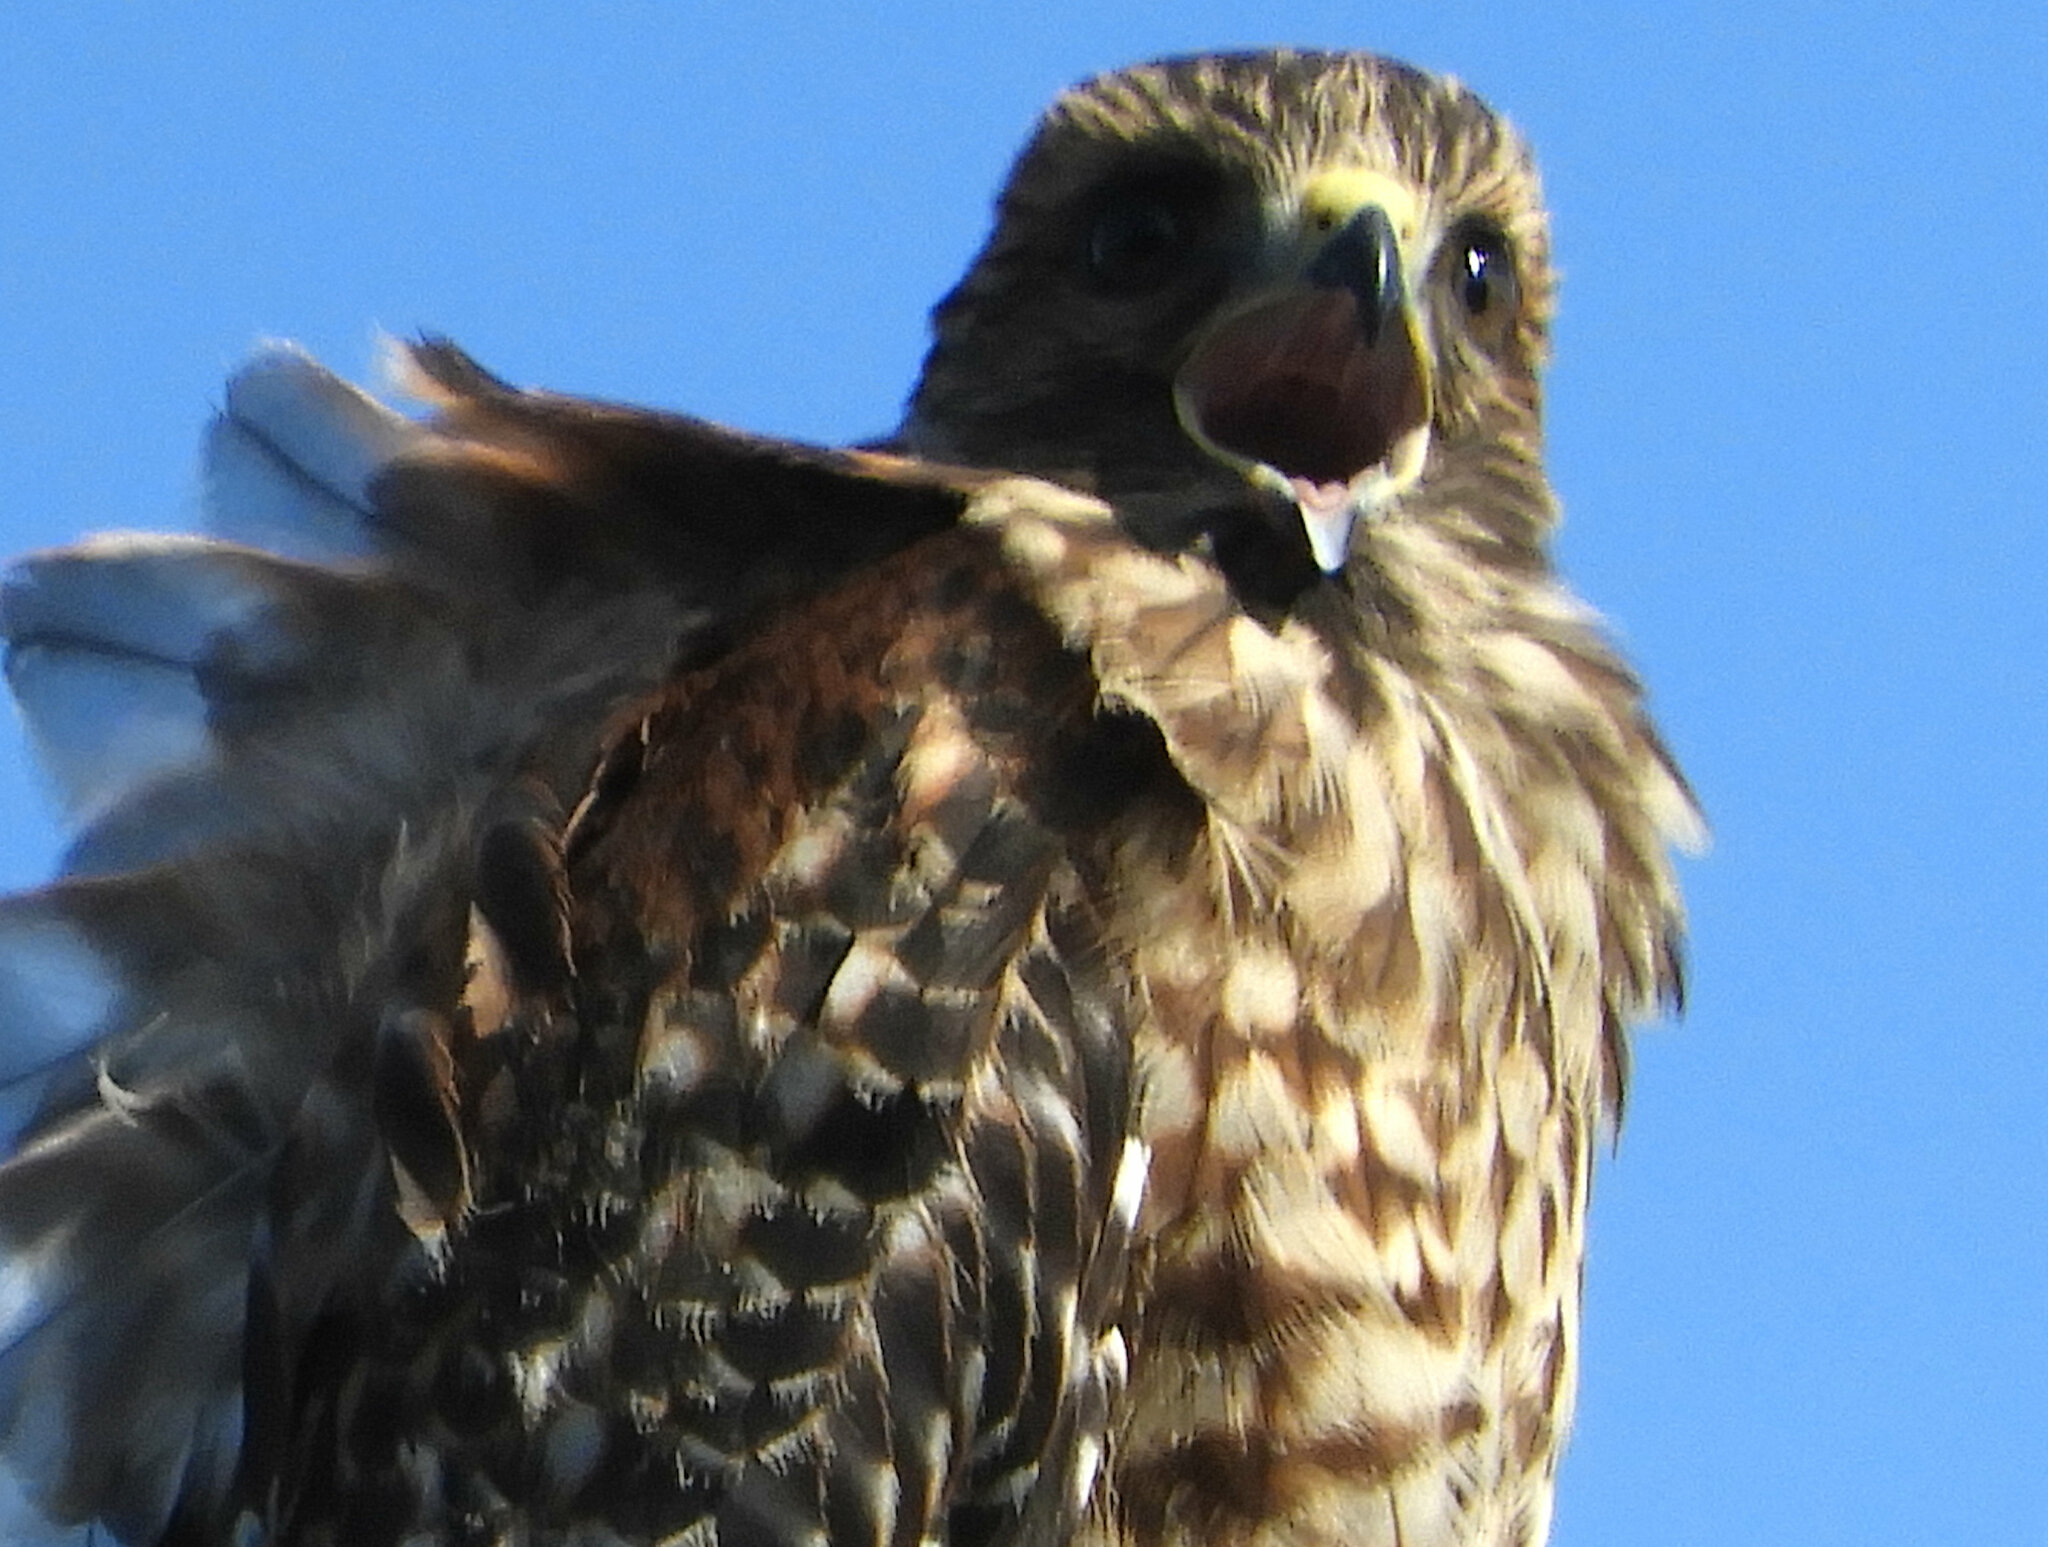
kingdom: Animalia
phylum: Chordata
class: Aves
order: Accipitriformes
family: Accipitridae
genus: Buteo
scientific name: Buteo lineatus
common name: Red-shouldered hawk
